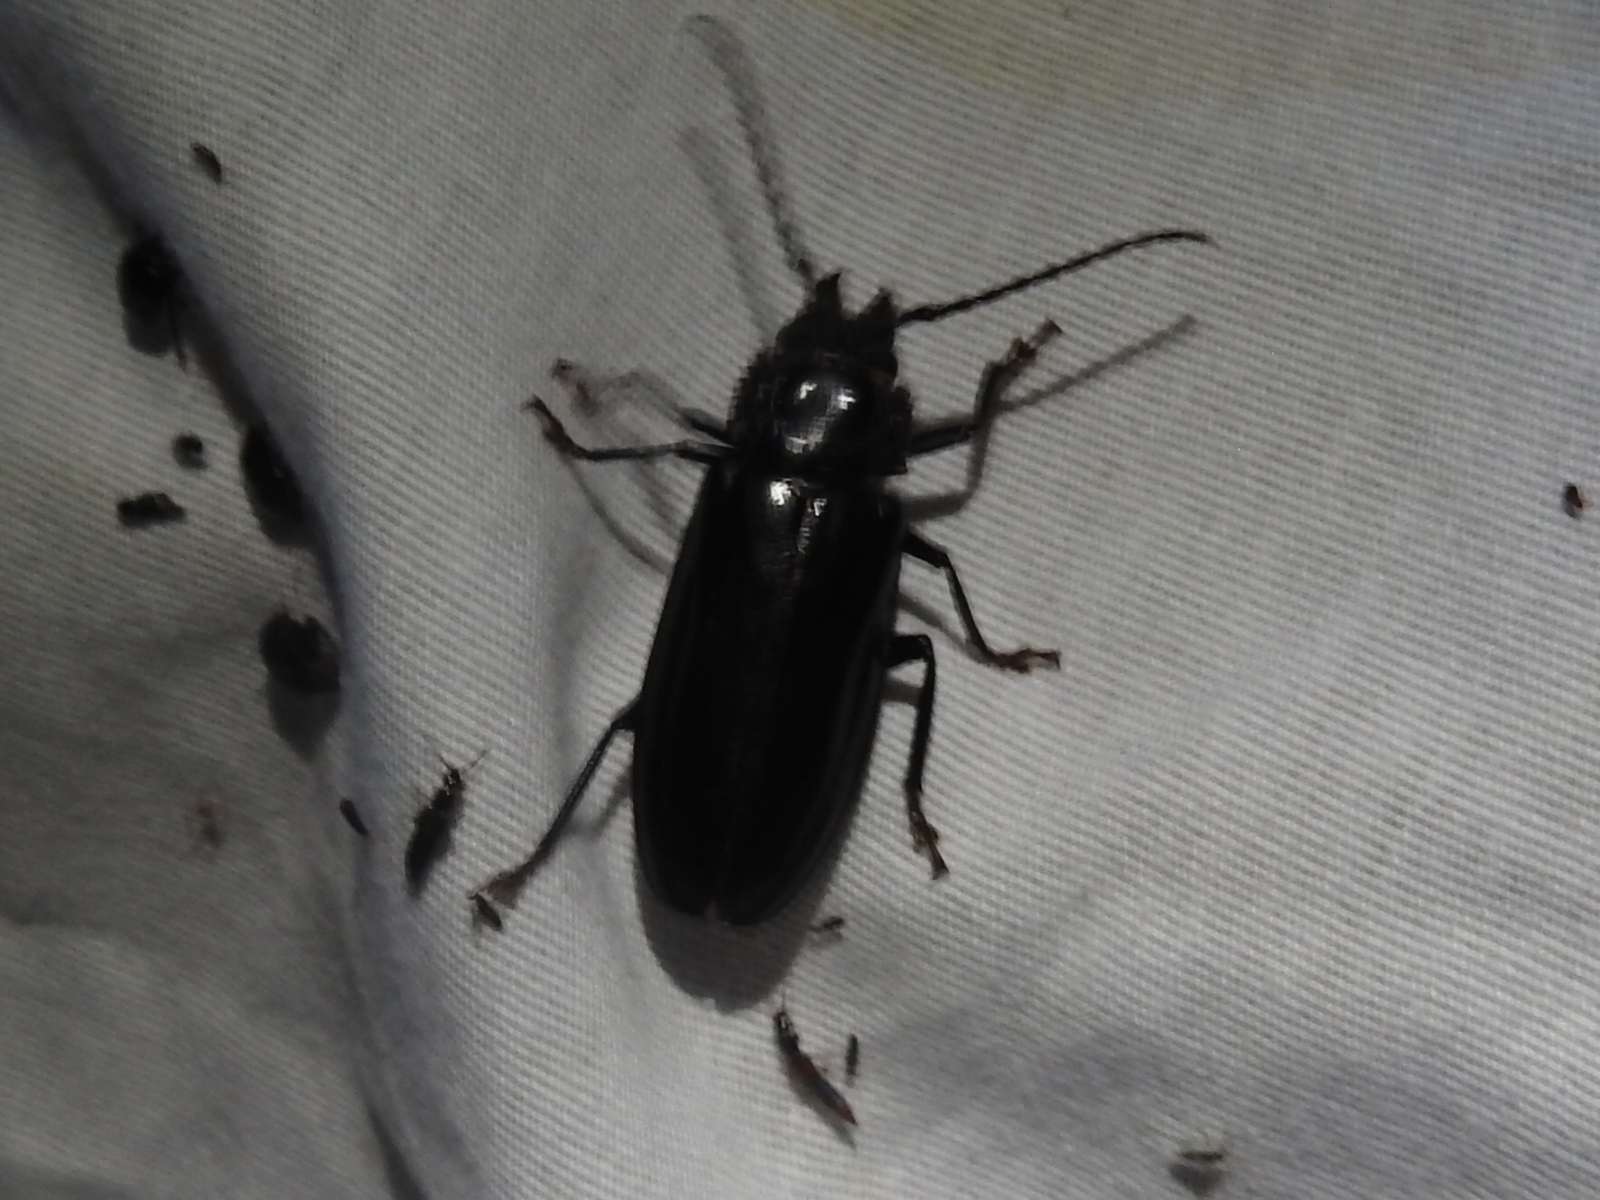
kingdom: Animalia
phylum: Arthropoda
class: Insecta
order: Coleoptera
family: Cerambycidae
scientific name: Cerambycidae
